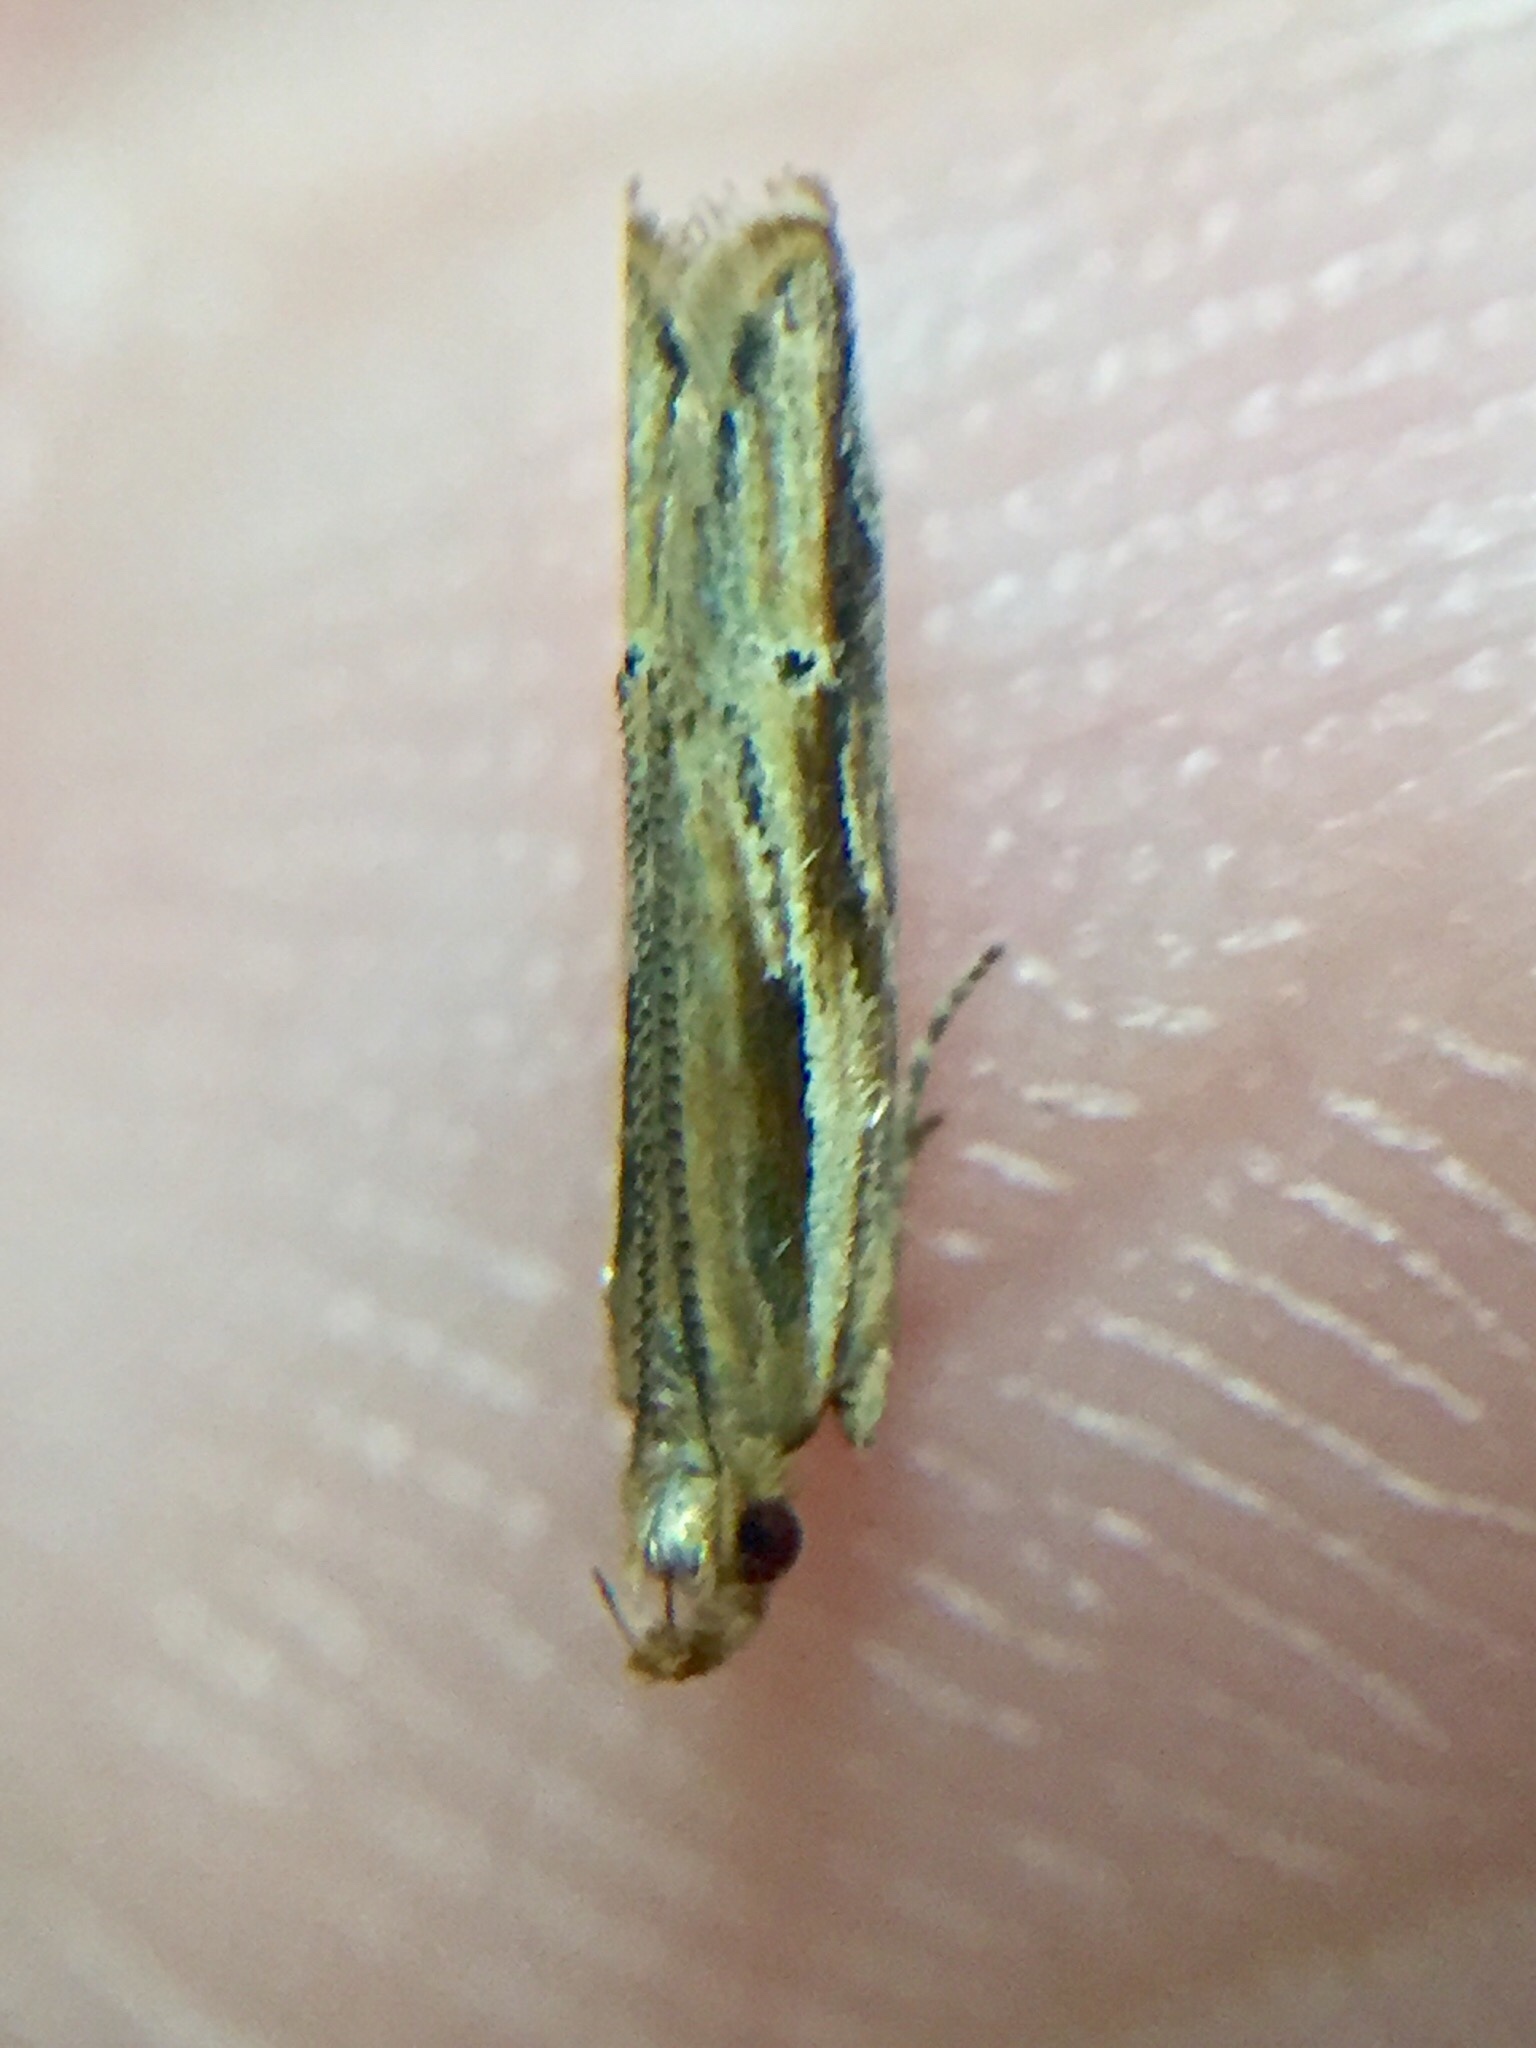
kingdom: Animalia
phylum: Arthropoda
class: Insecta
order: Lepidoptera
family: Depressariidae
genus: Eutorna
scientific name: Eutorna symmorpha
